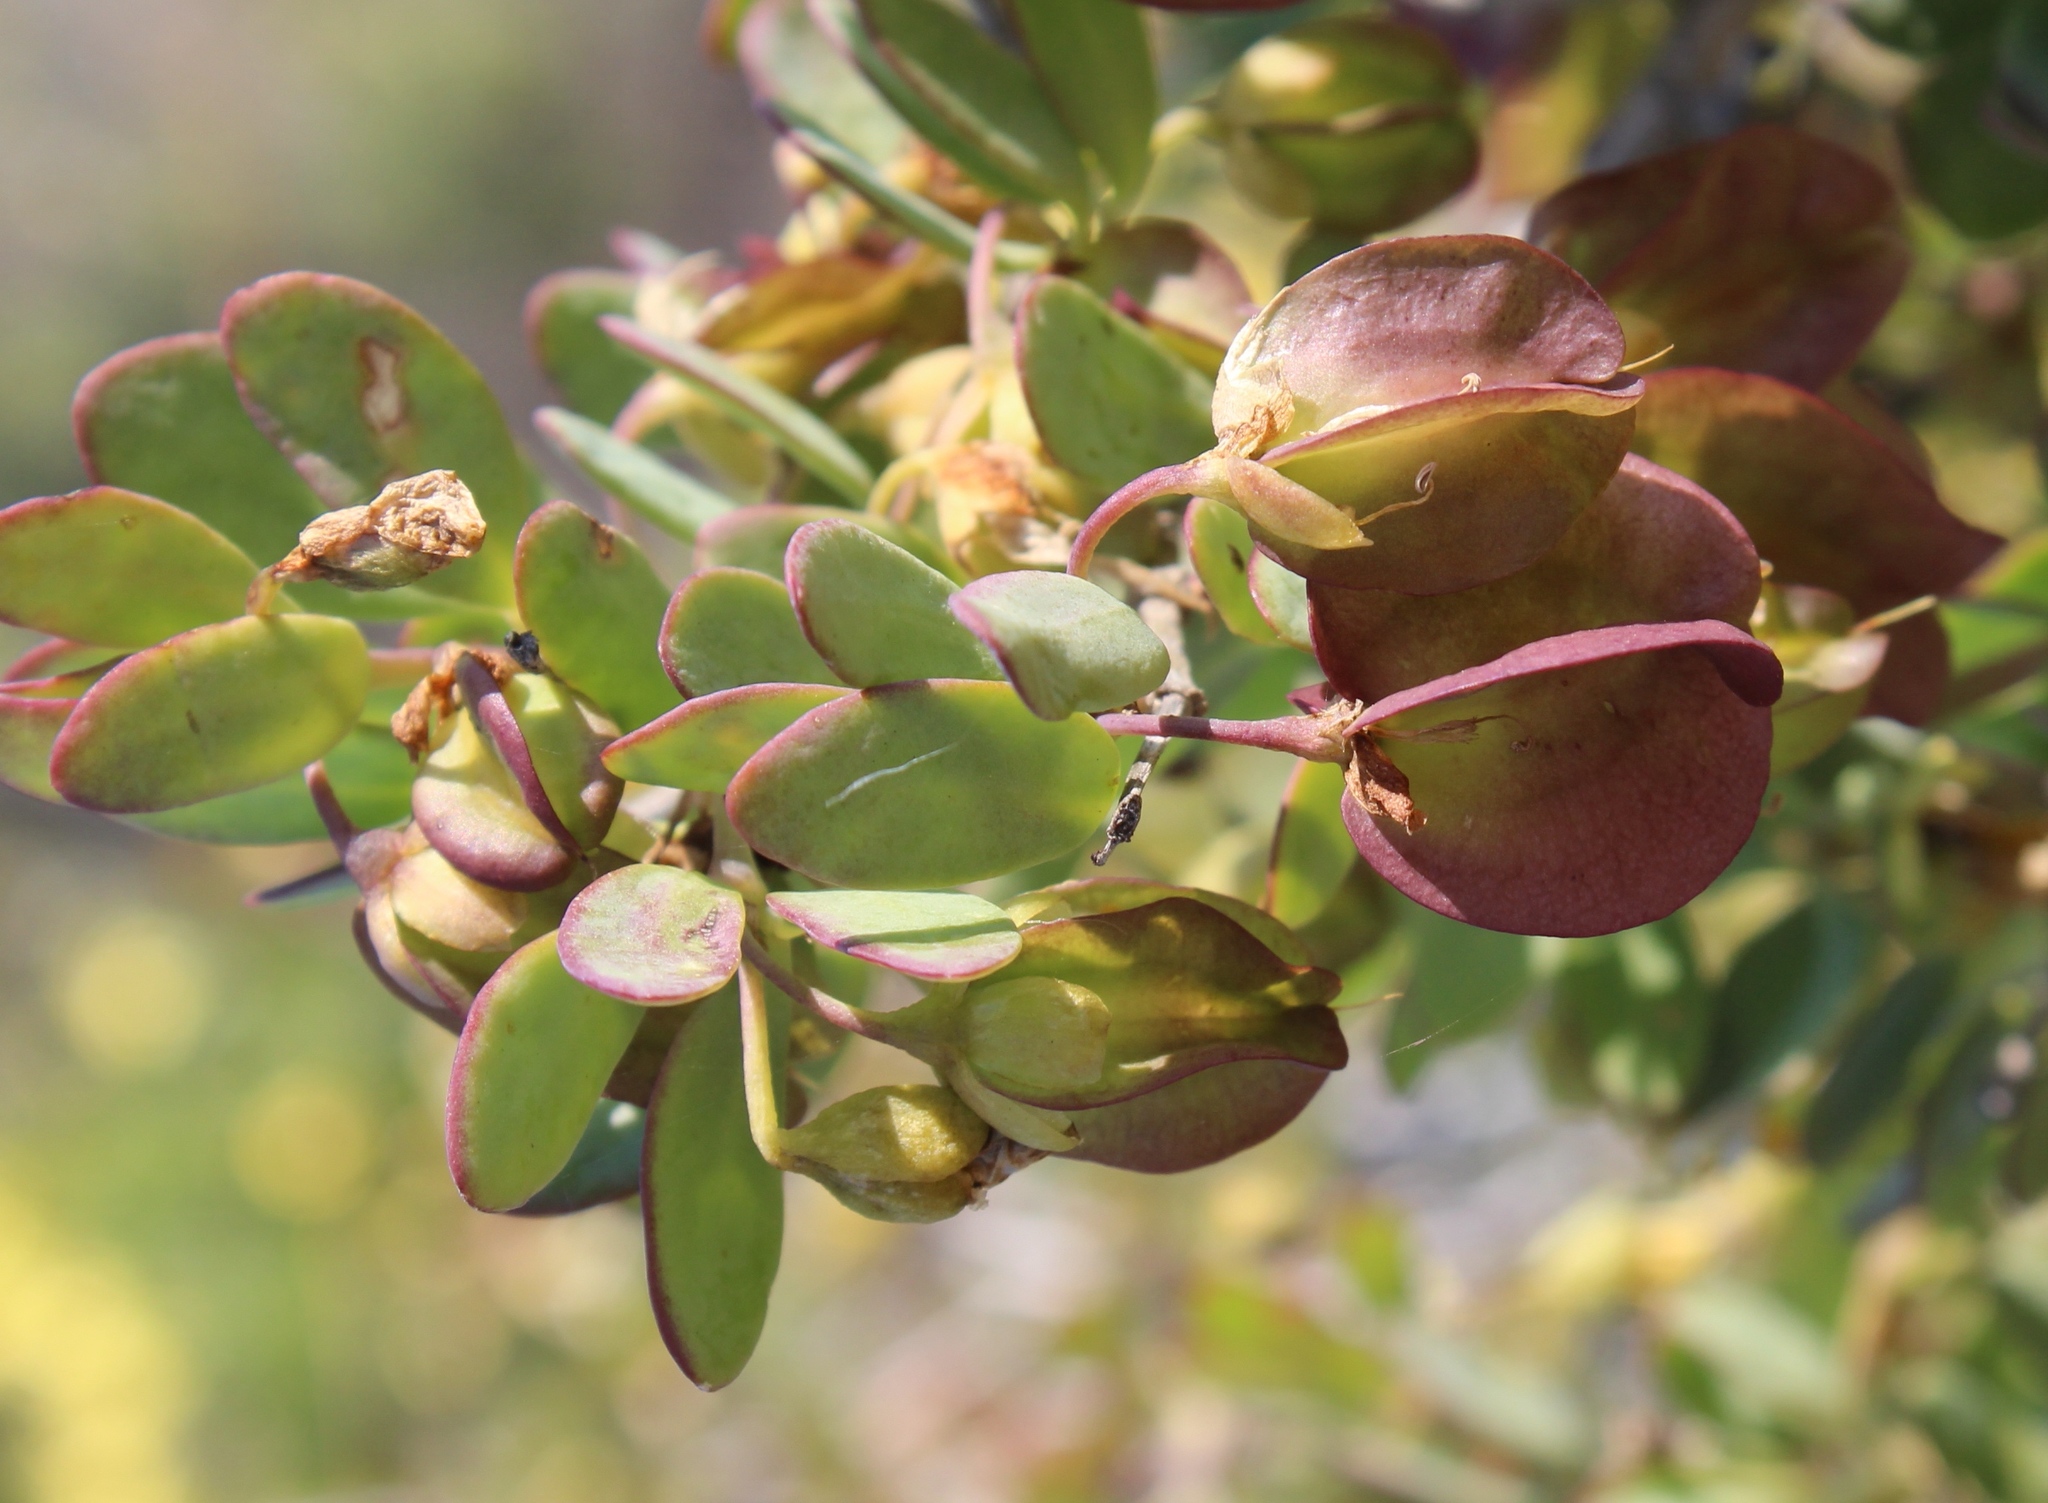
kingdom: Plantae
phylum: Tracheophyta
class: Magnoliopsida
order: Zygophyllales
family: Zygophyllaceae
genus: Roepera
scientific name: Roepera morgsana
